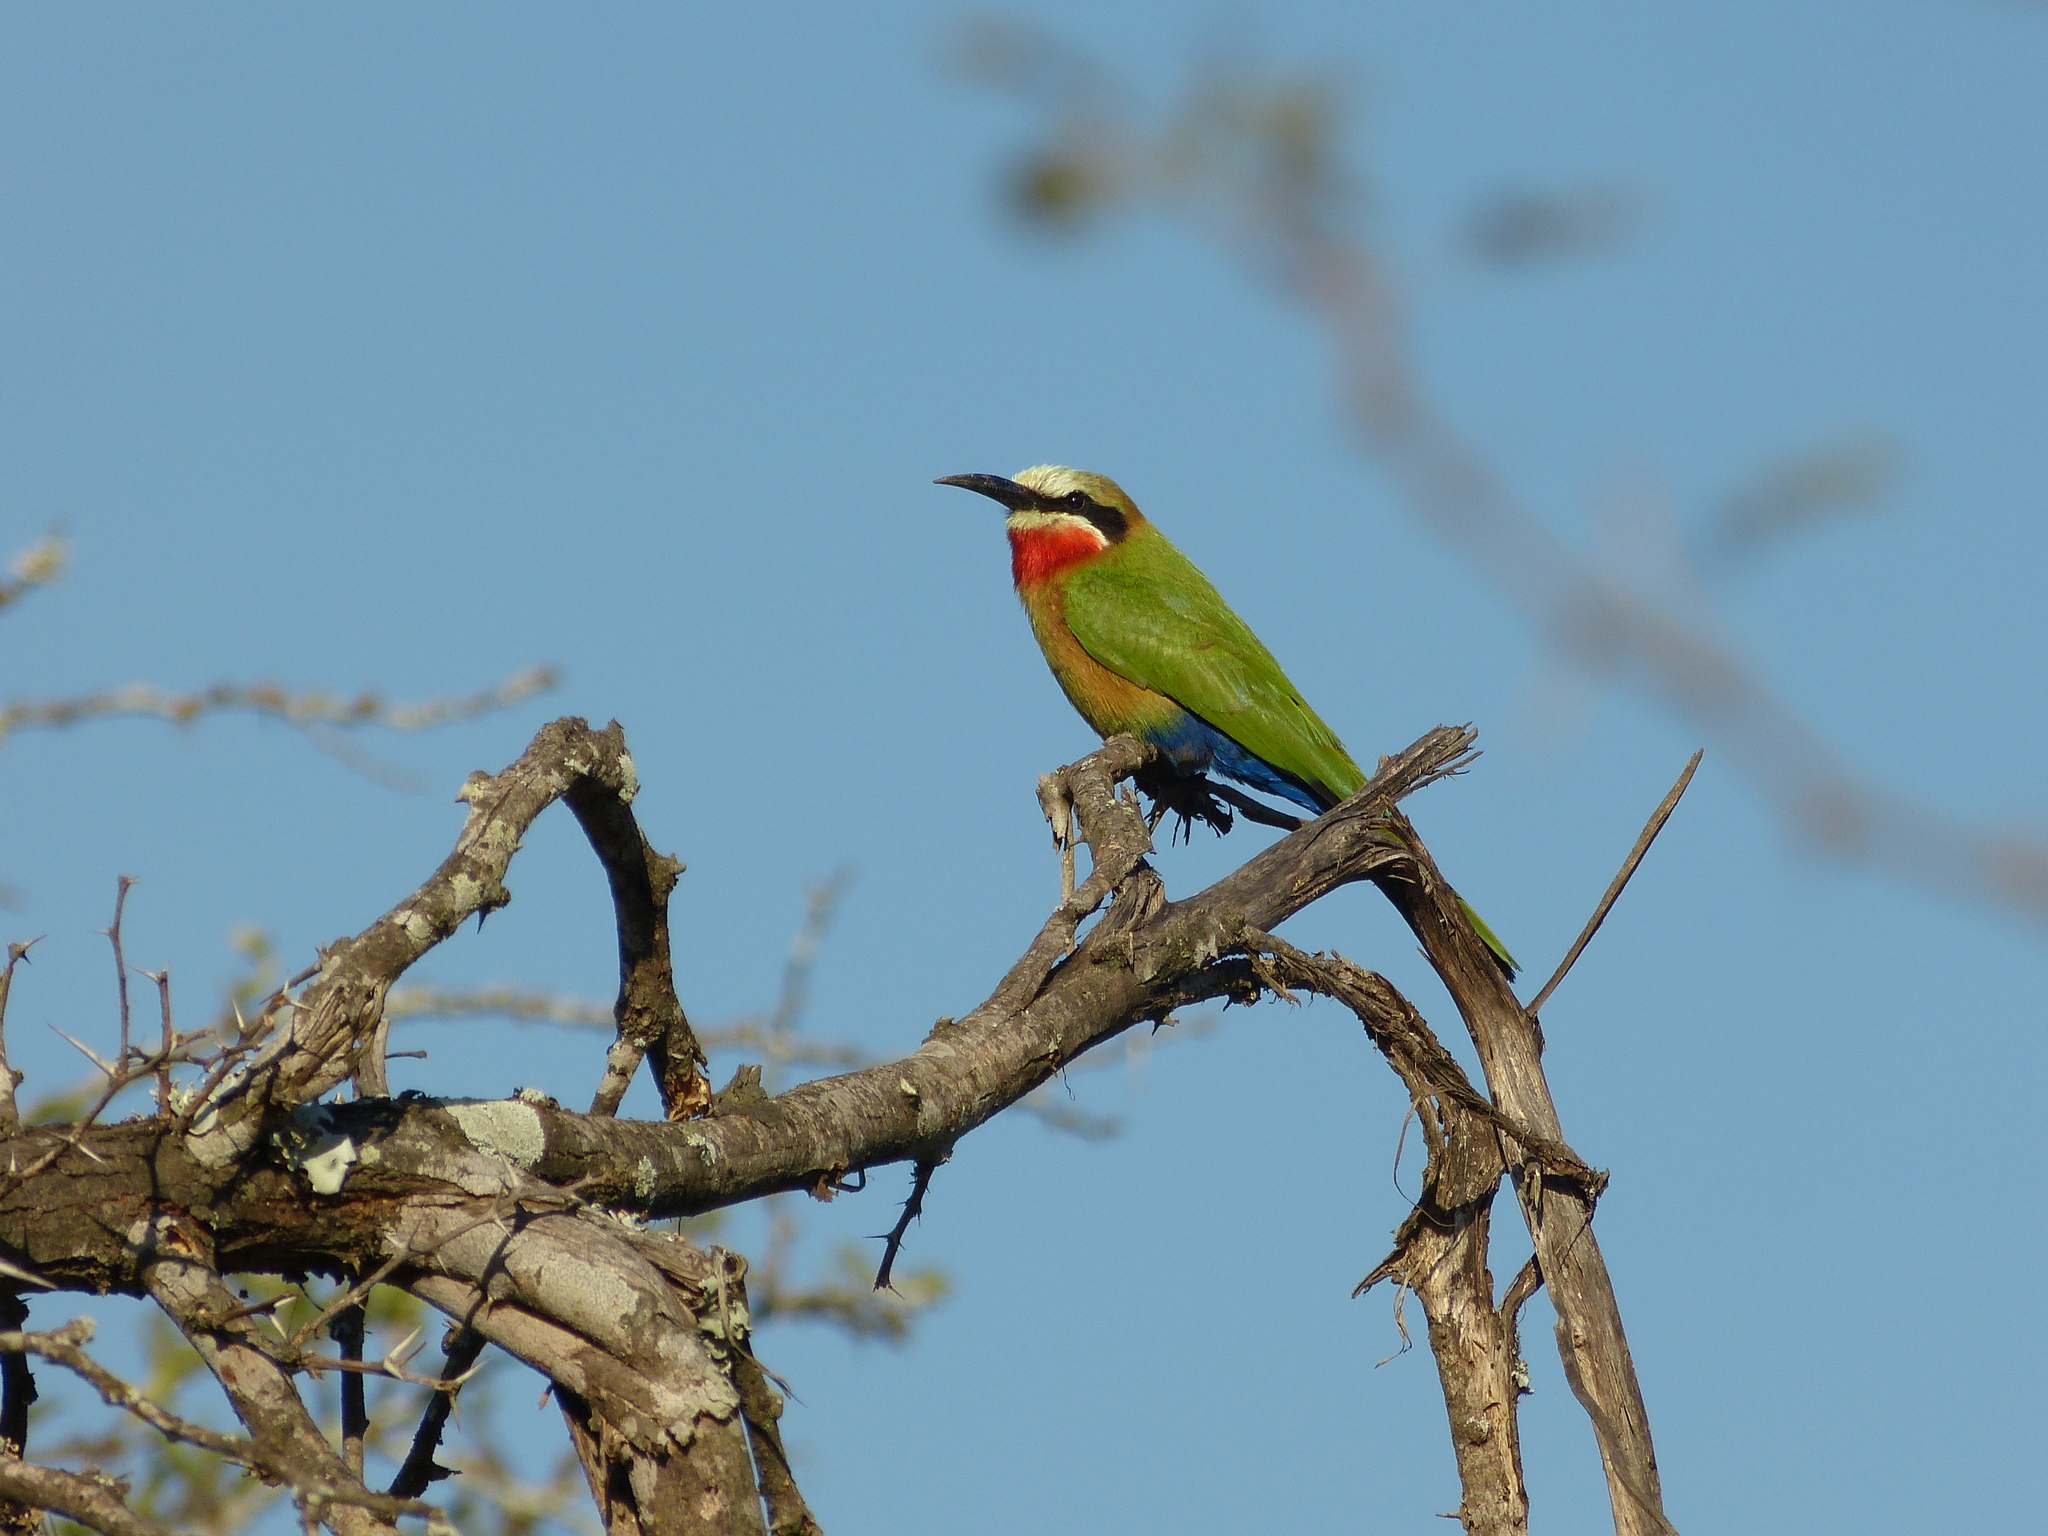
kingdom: Animalia
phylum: Chordata
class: Aves
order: Coraciiformes
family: Meropidae
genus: Merops
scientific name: Merops bullockoides
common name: White-fronted bee-eater
